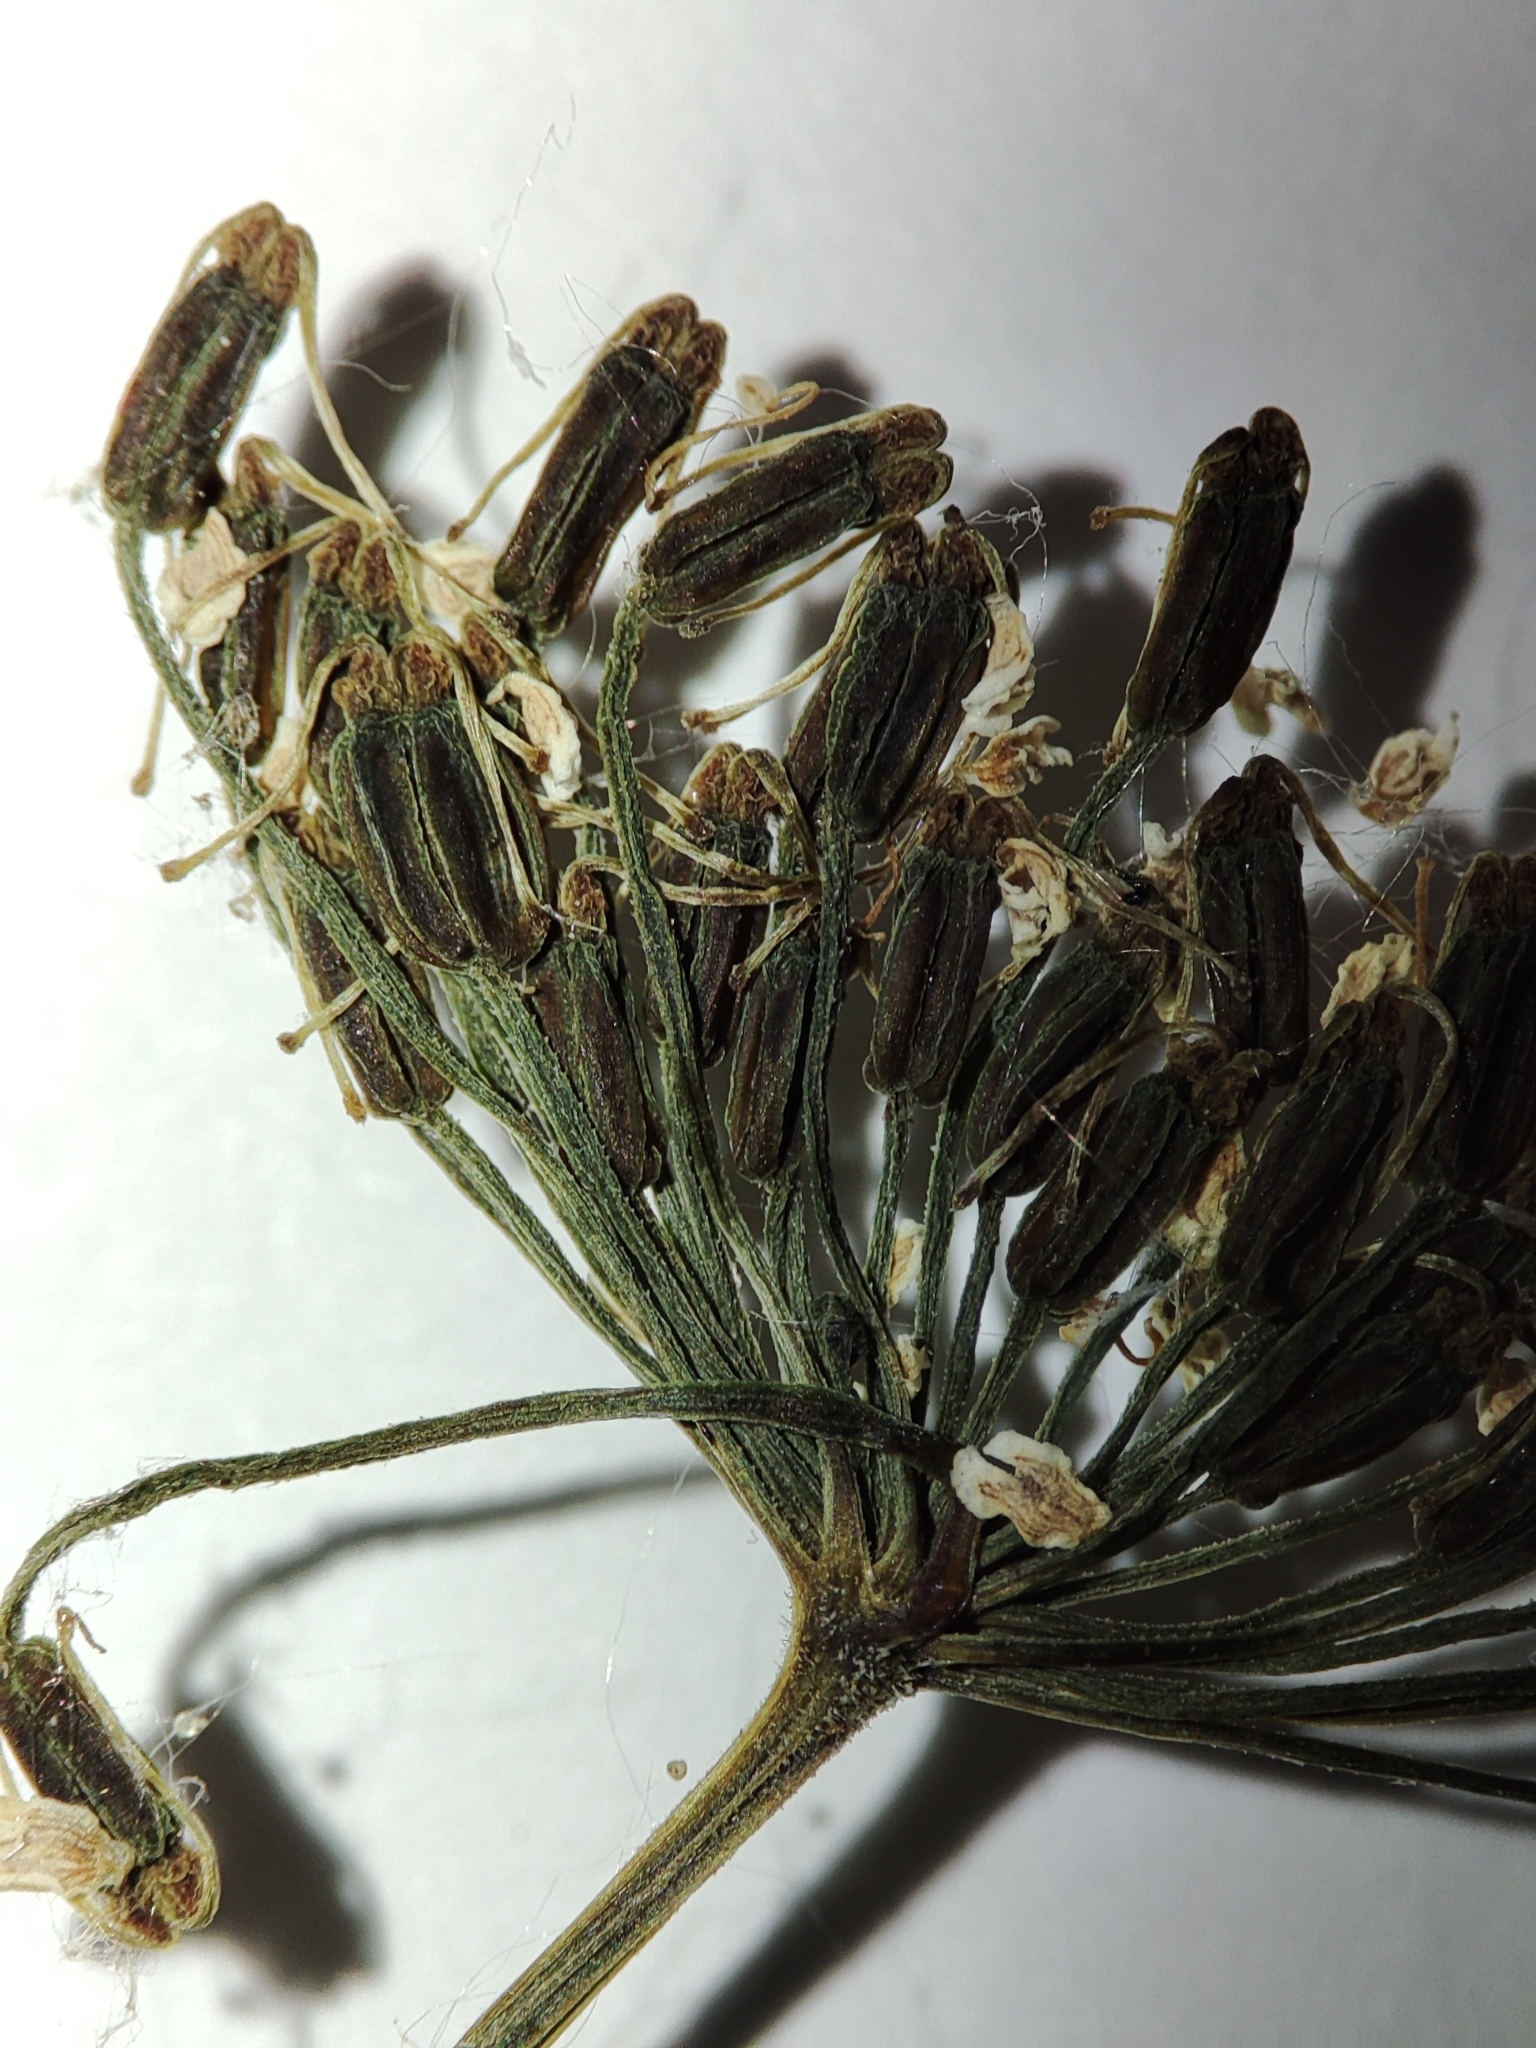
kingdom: Plantae
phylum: Tracheophyta
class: Magnoliopsida
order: Apiales
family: Apiaceae
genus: Aegopodium
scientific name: Aegopodium podagraria
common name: Ground-elder
